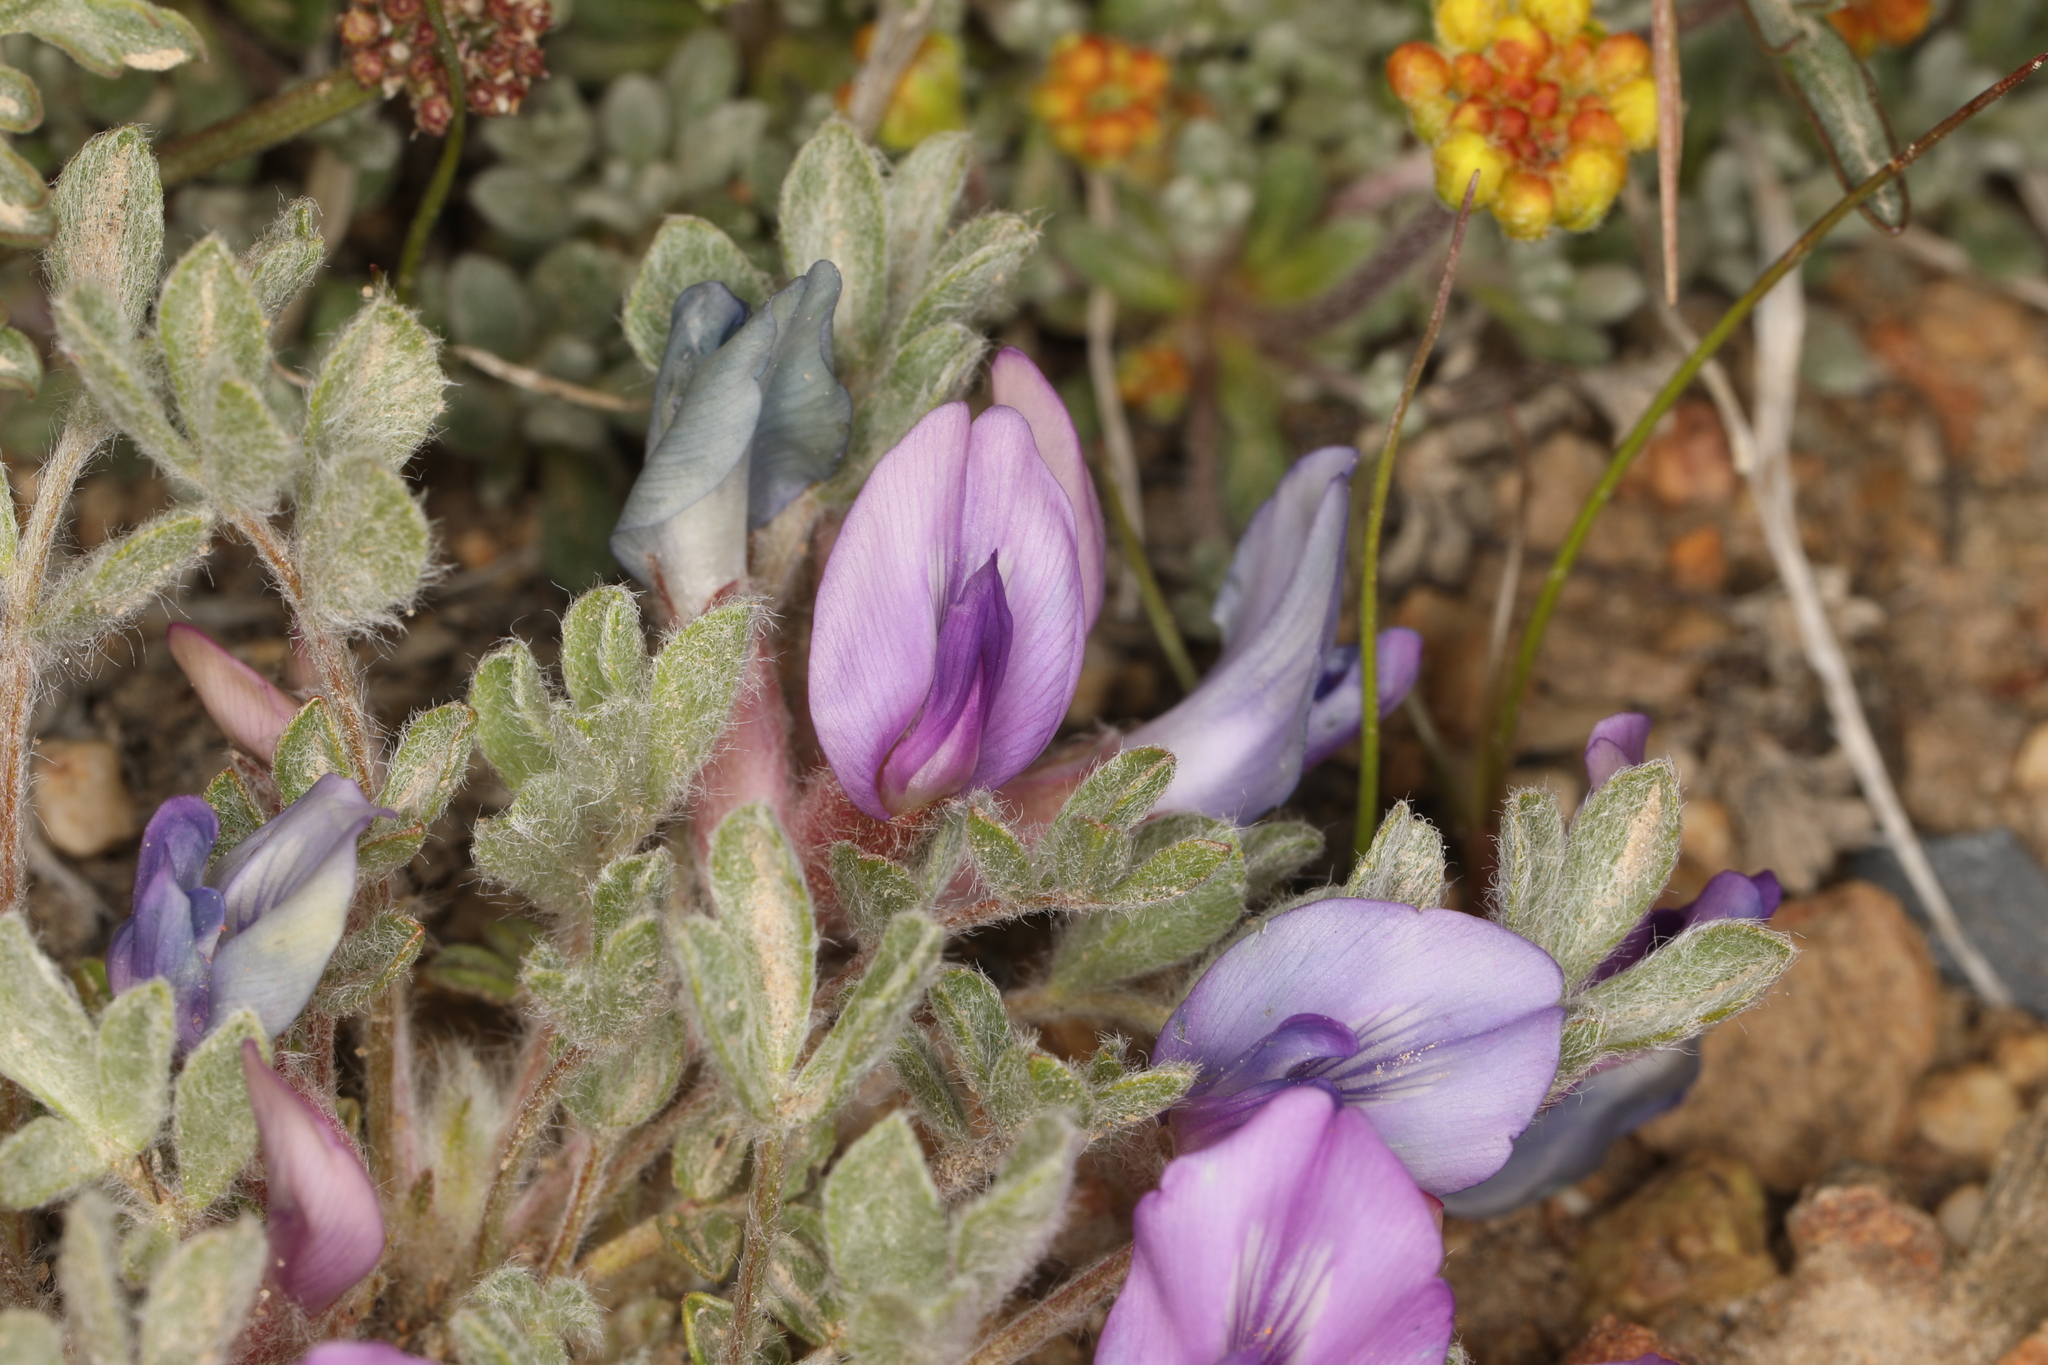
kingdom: Plantae
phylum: Tracheophyta
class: Magnoliopsida
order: Fabales
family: Fabaceae
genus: Astragalus
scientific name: Astragalus purshii
